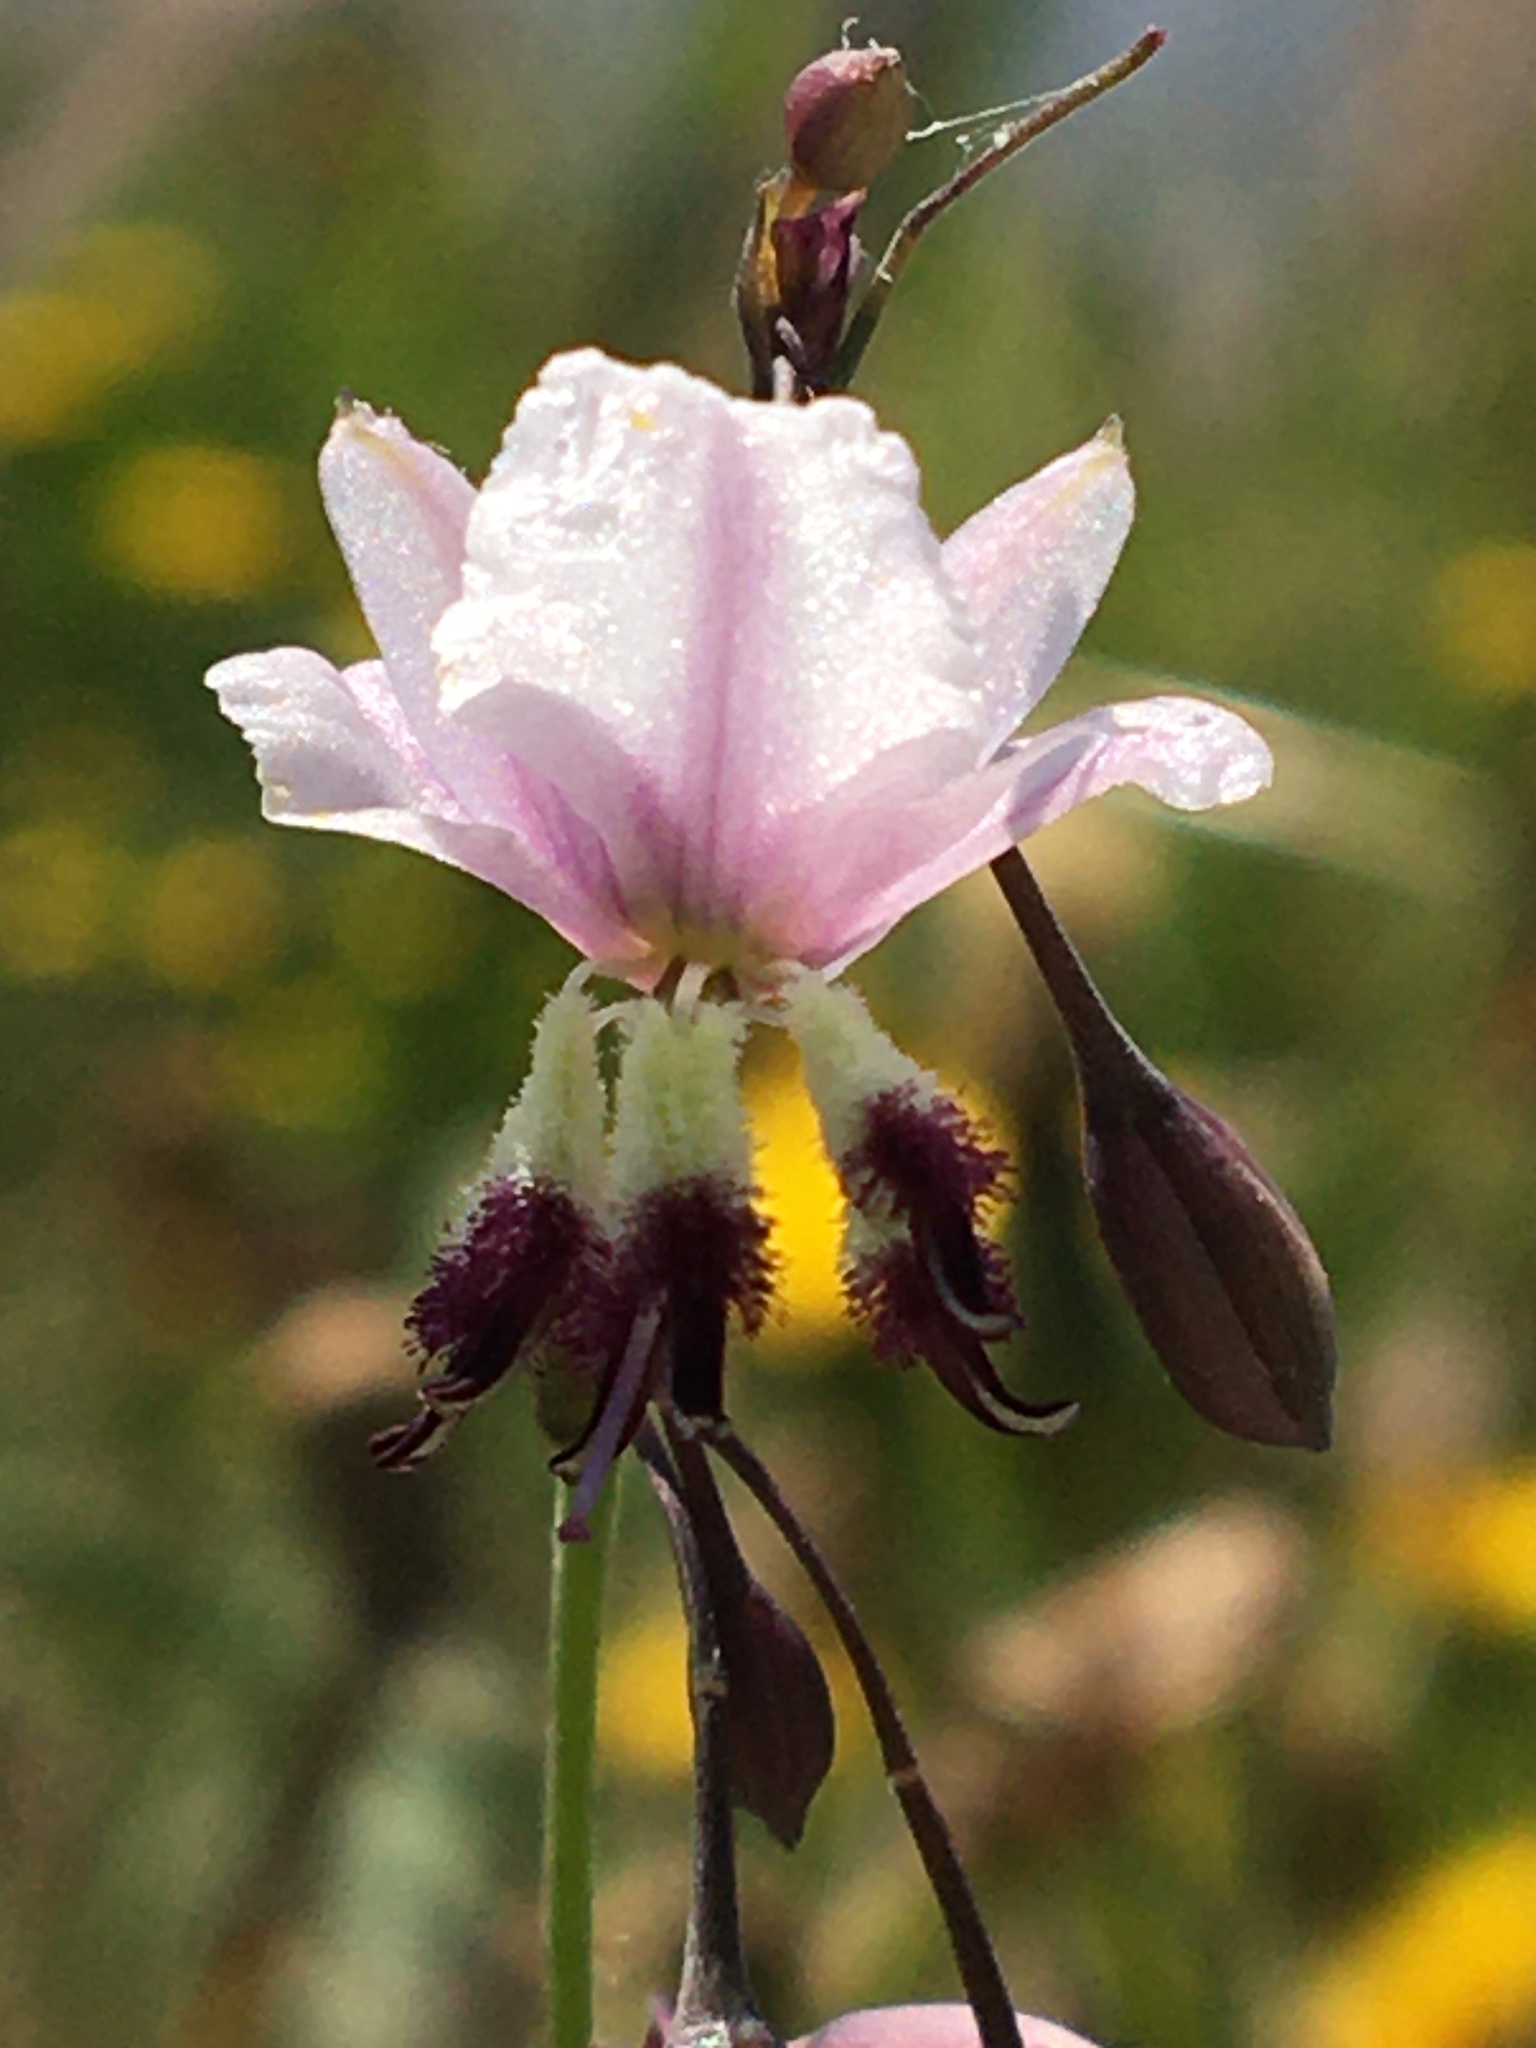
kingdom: Plantae
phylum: Tracheophyta
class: Liliopsida
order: Asparagales
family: Asparagaceae
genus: Arthropodium
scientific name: Arthropodium milleflorum
